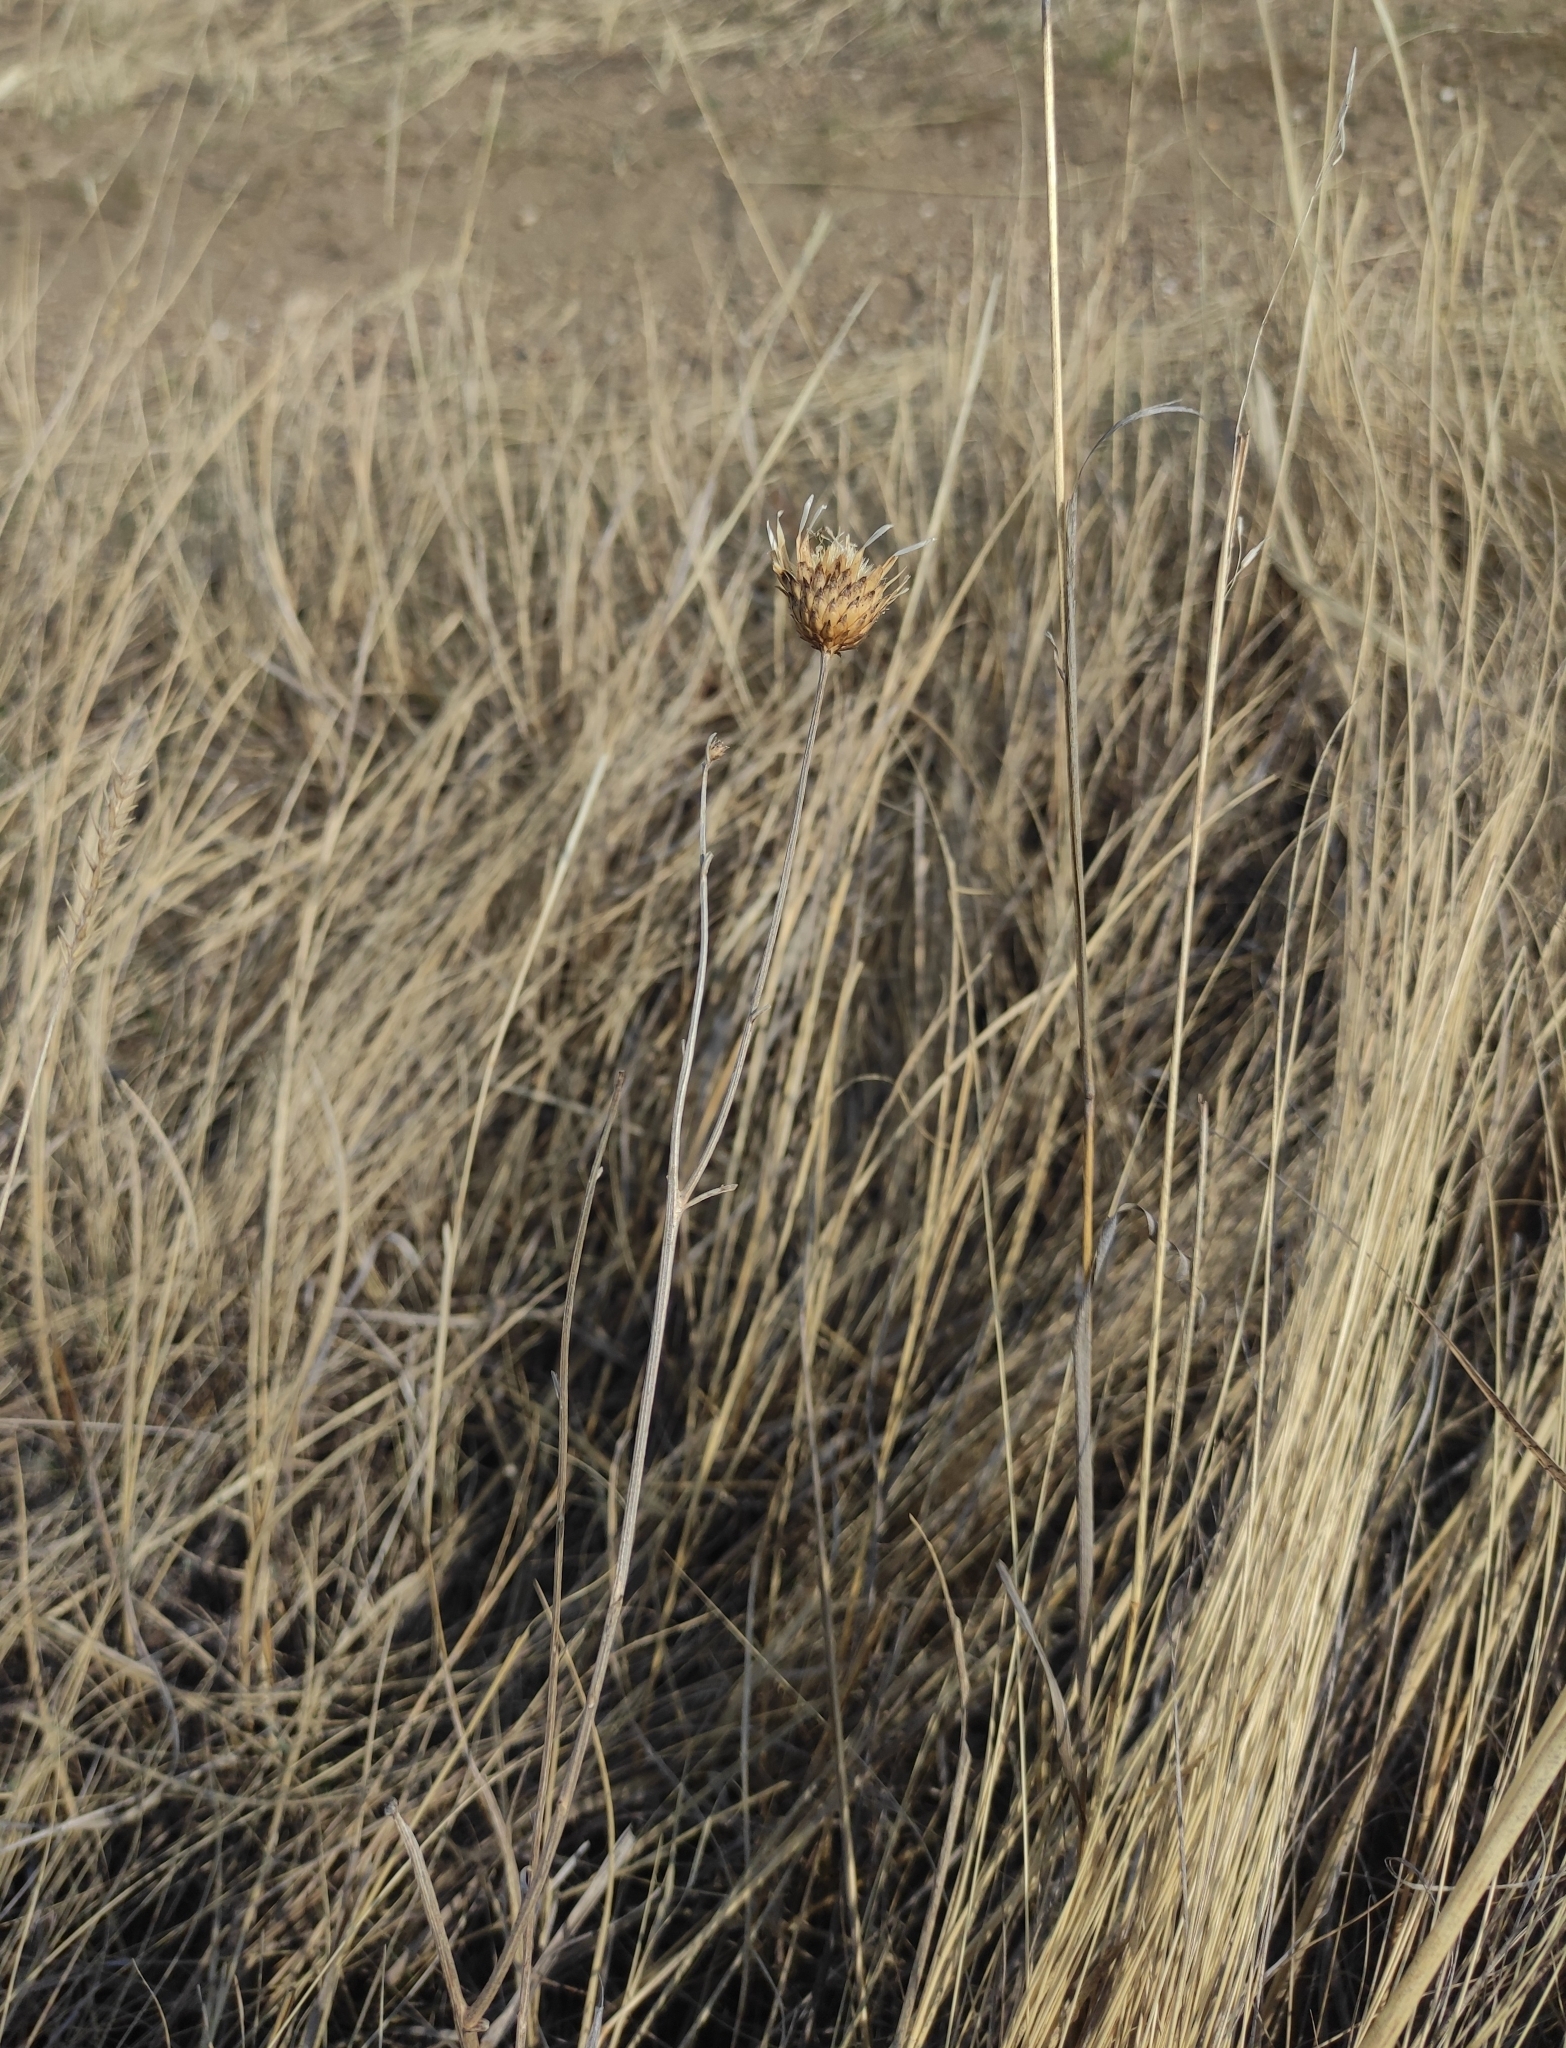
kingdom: Plantae
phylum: Tracheophyta
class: Magnoliopsida
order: Asterales
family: Asteraceae
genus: Klasea
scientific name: Klasea centauroides
